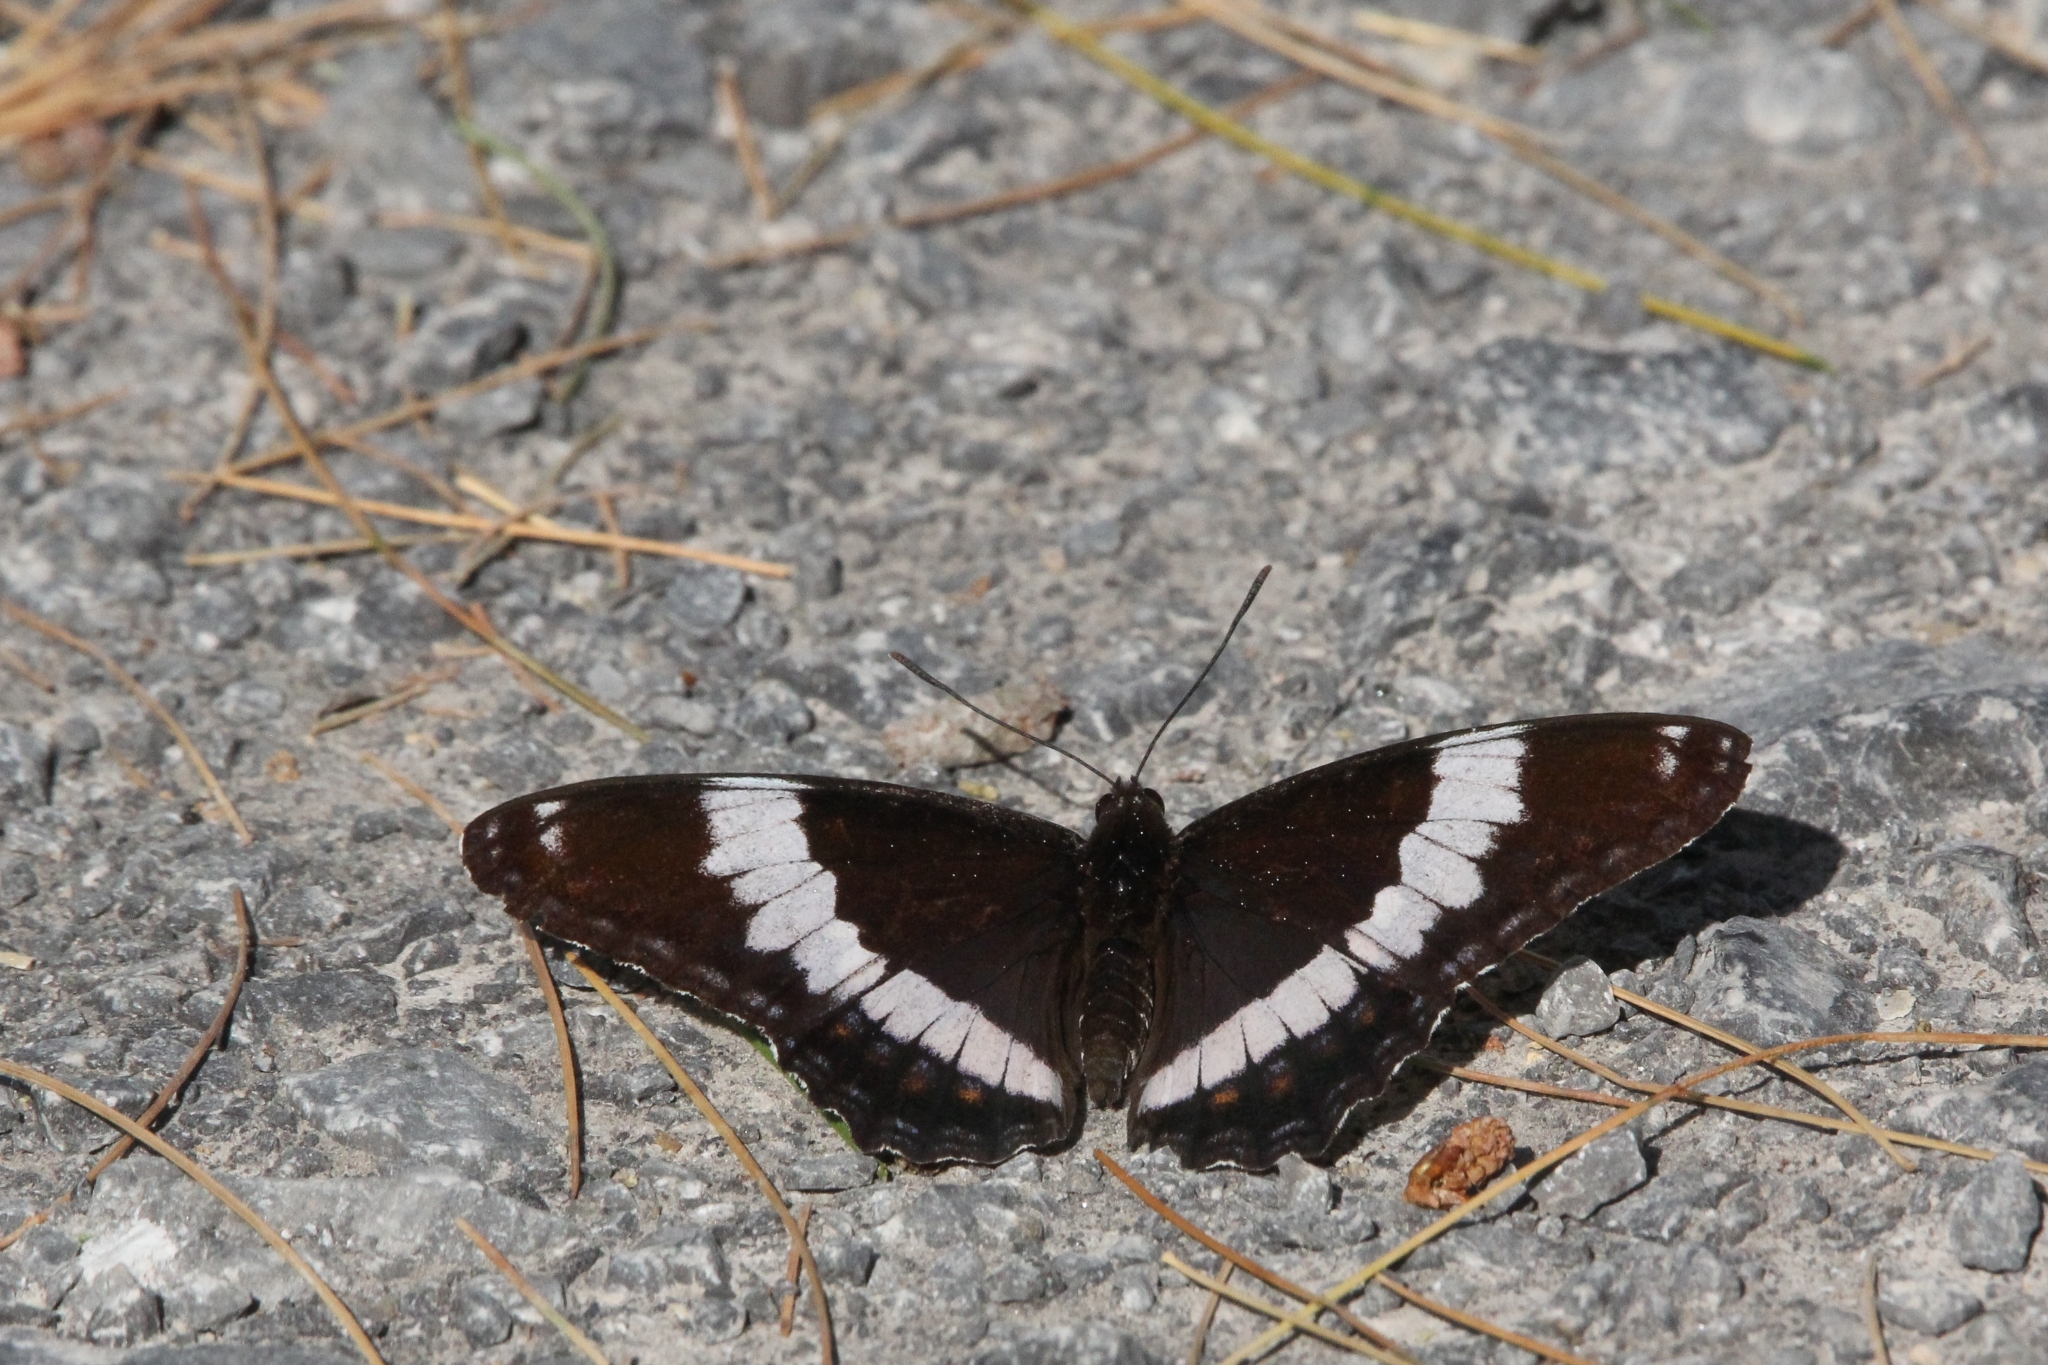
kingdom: Animalia
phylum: Arthropoda
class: Insecta
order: Lepidoptera
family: Nymphalidae
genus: Limenitis
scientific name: Limenitis arthemis
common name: Red-spotted admiral
